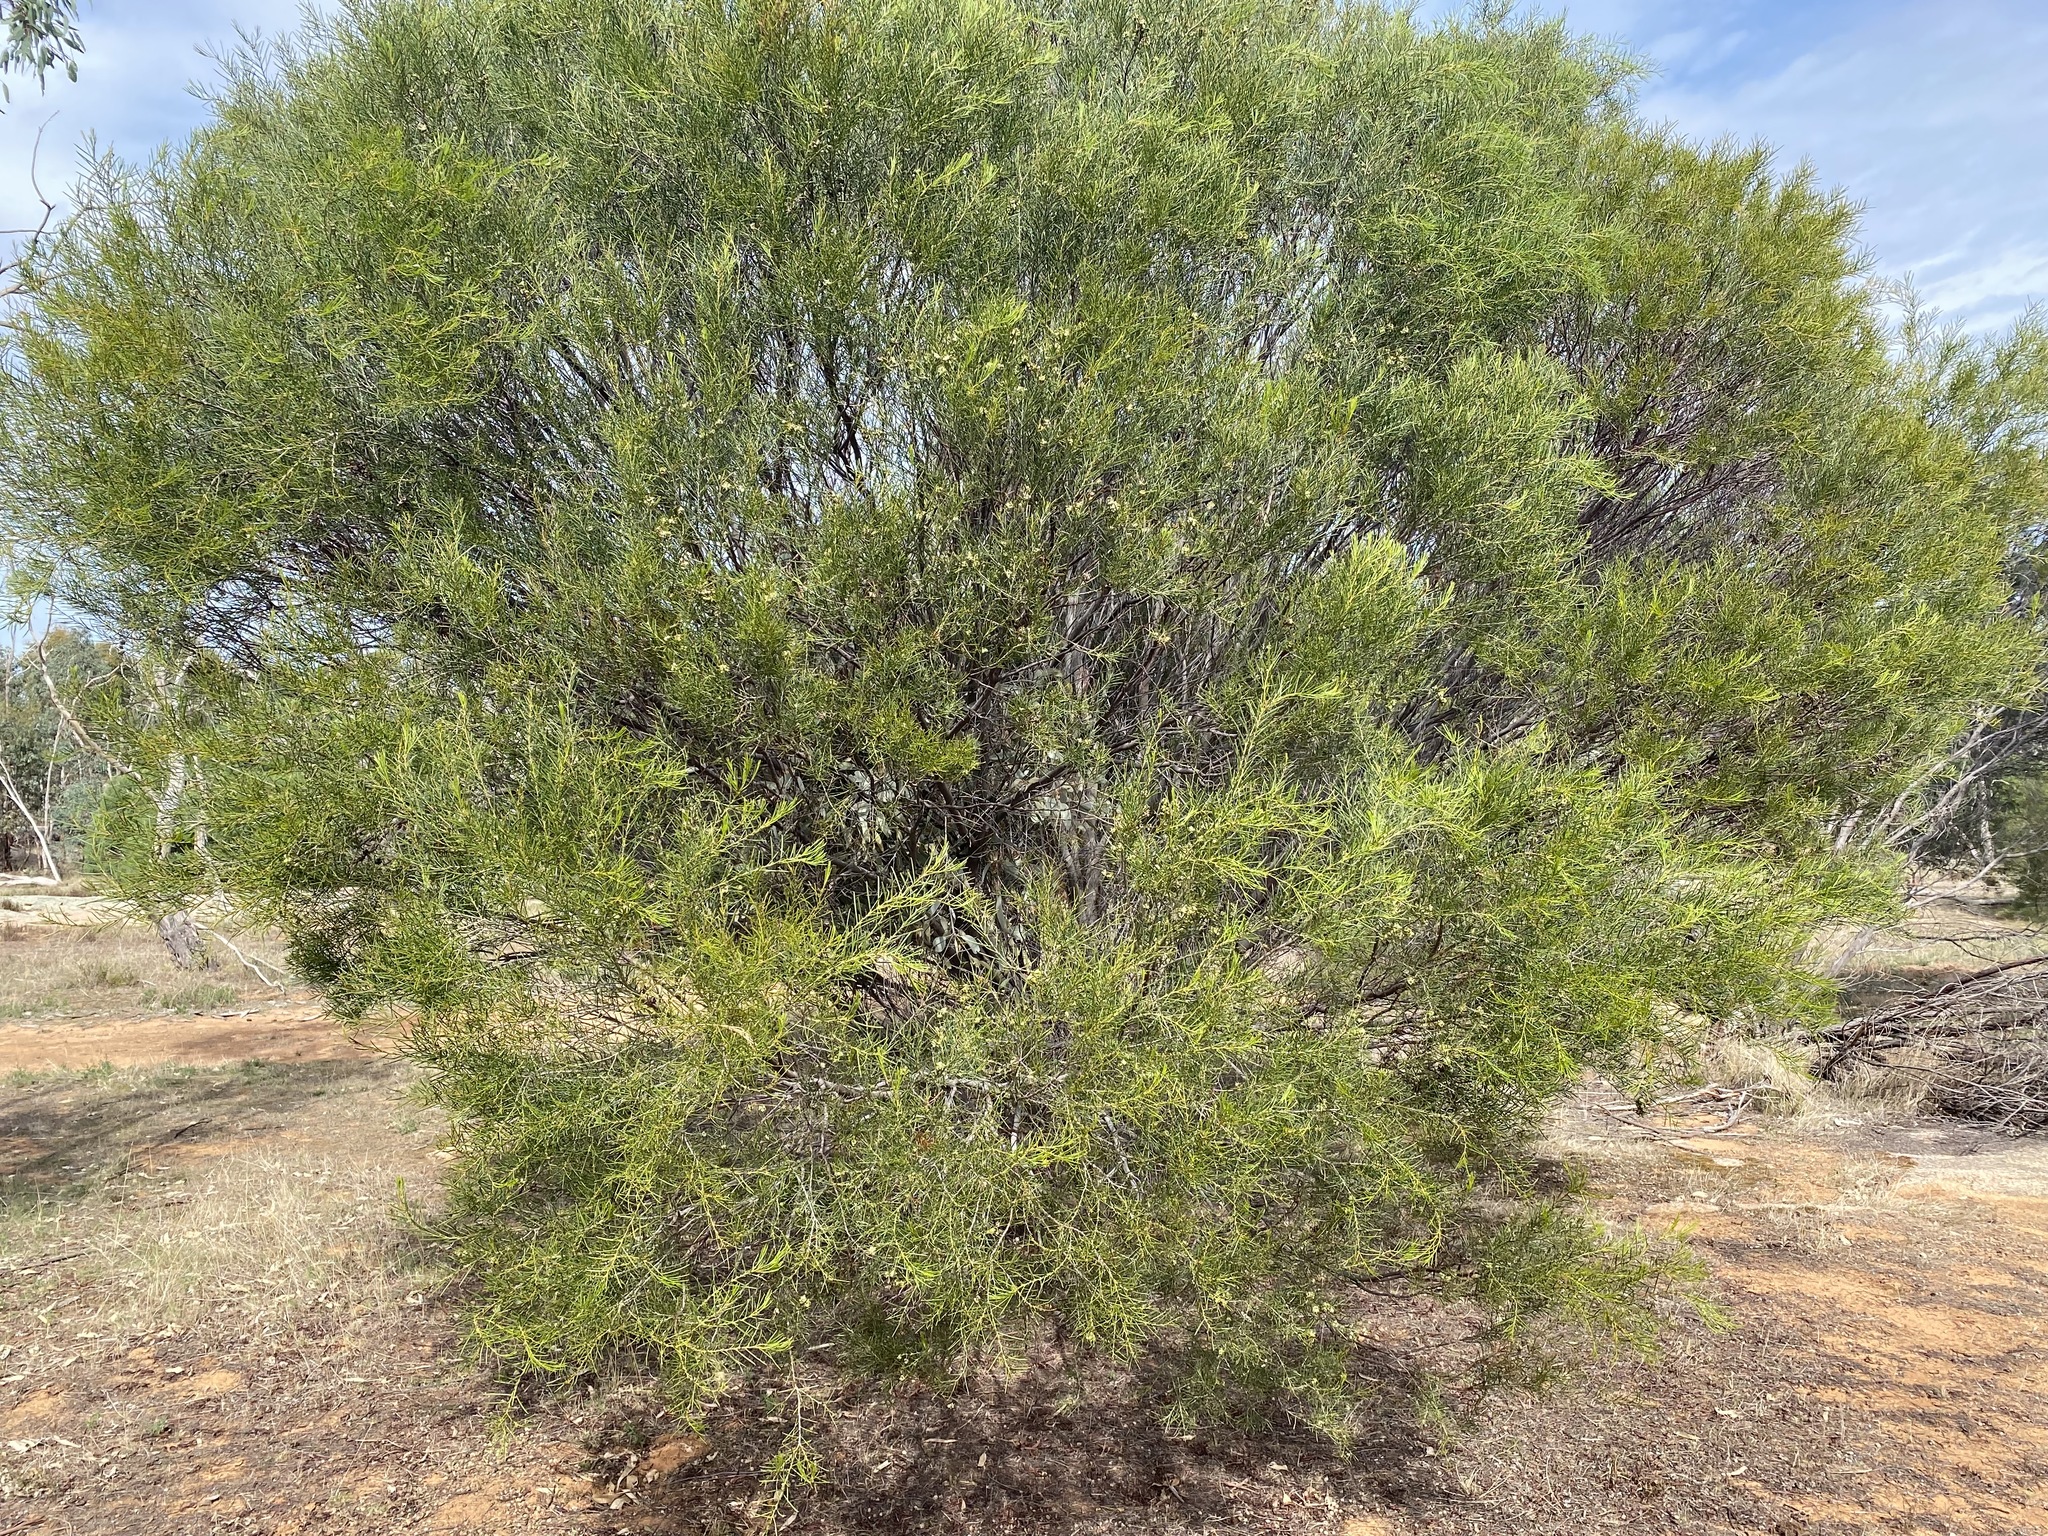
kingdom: Plantae
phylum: Tracheophyta
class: Magnoliopsida
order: Fabales
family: Fabaceae
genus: Acacia
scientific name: Acacia euthycarpa
